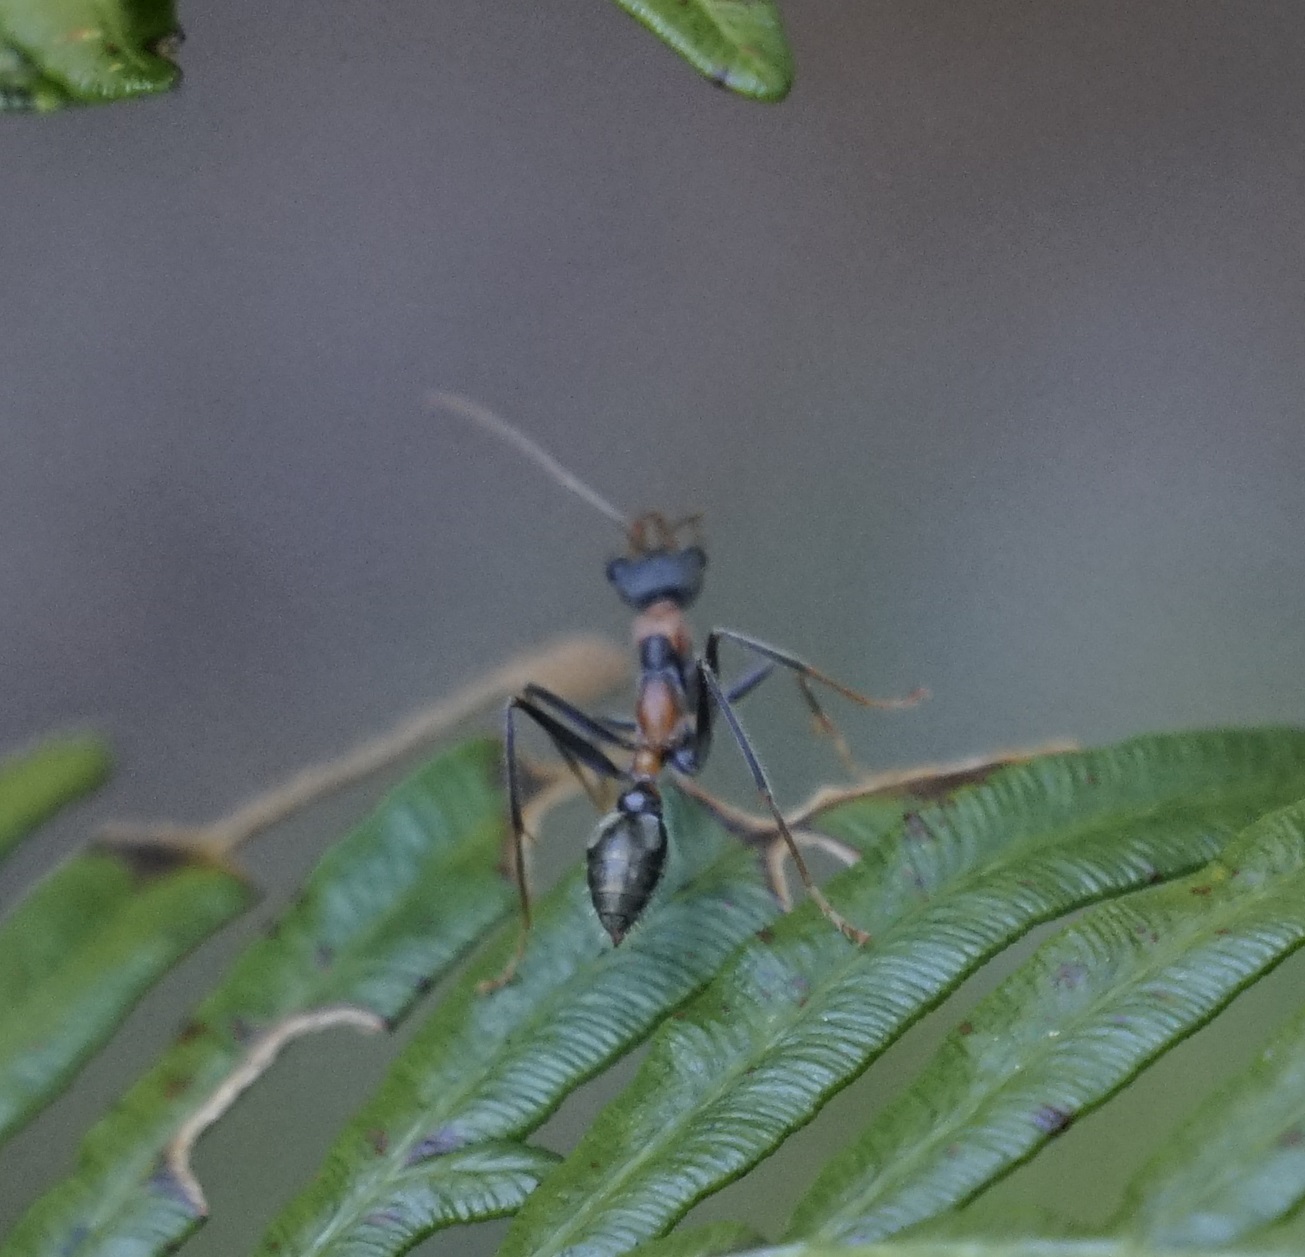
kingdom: Animalia
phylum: Arthropoda
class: Insecta
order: Hymenoptera
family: Formicidae
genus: Myrmecia
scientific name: Myrmecia nigrocincta
